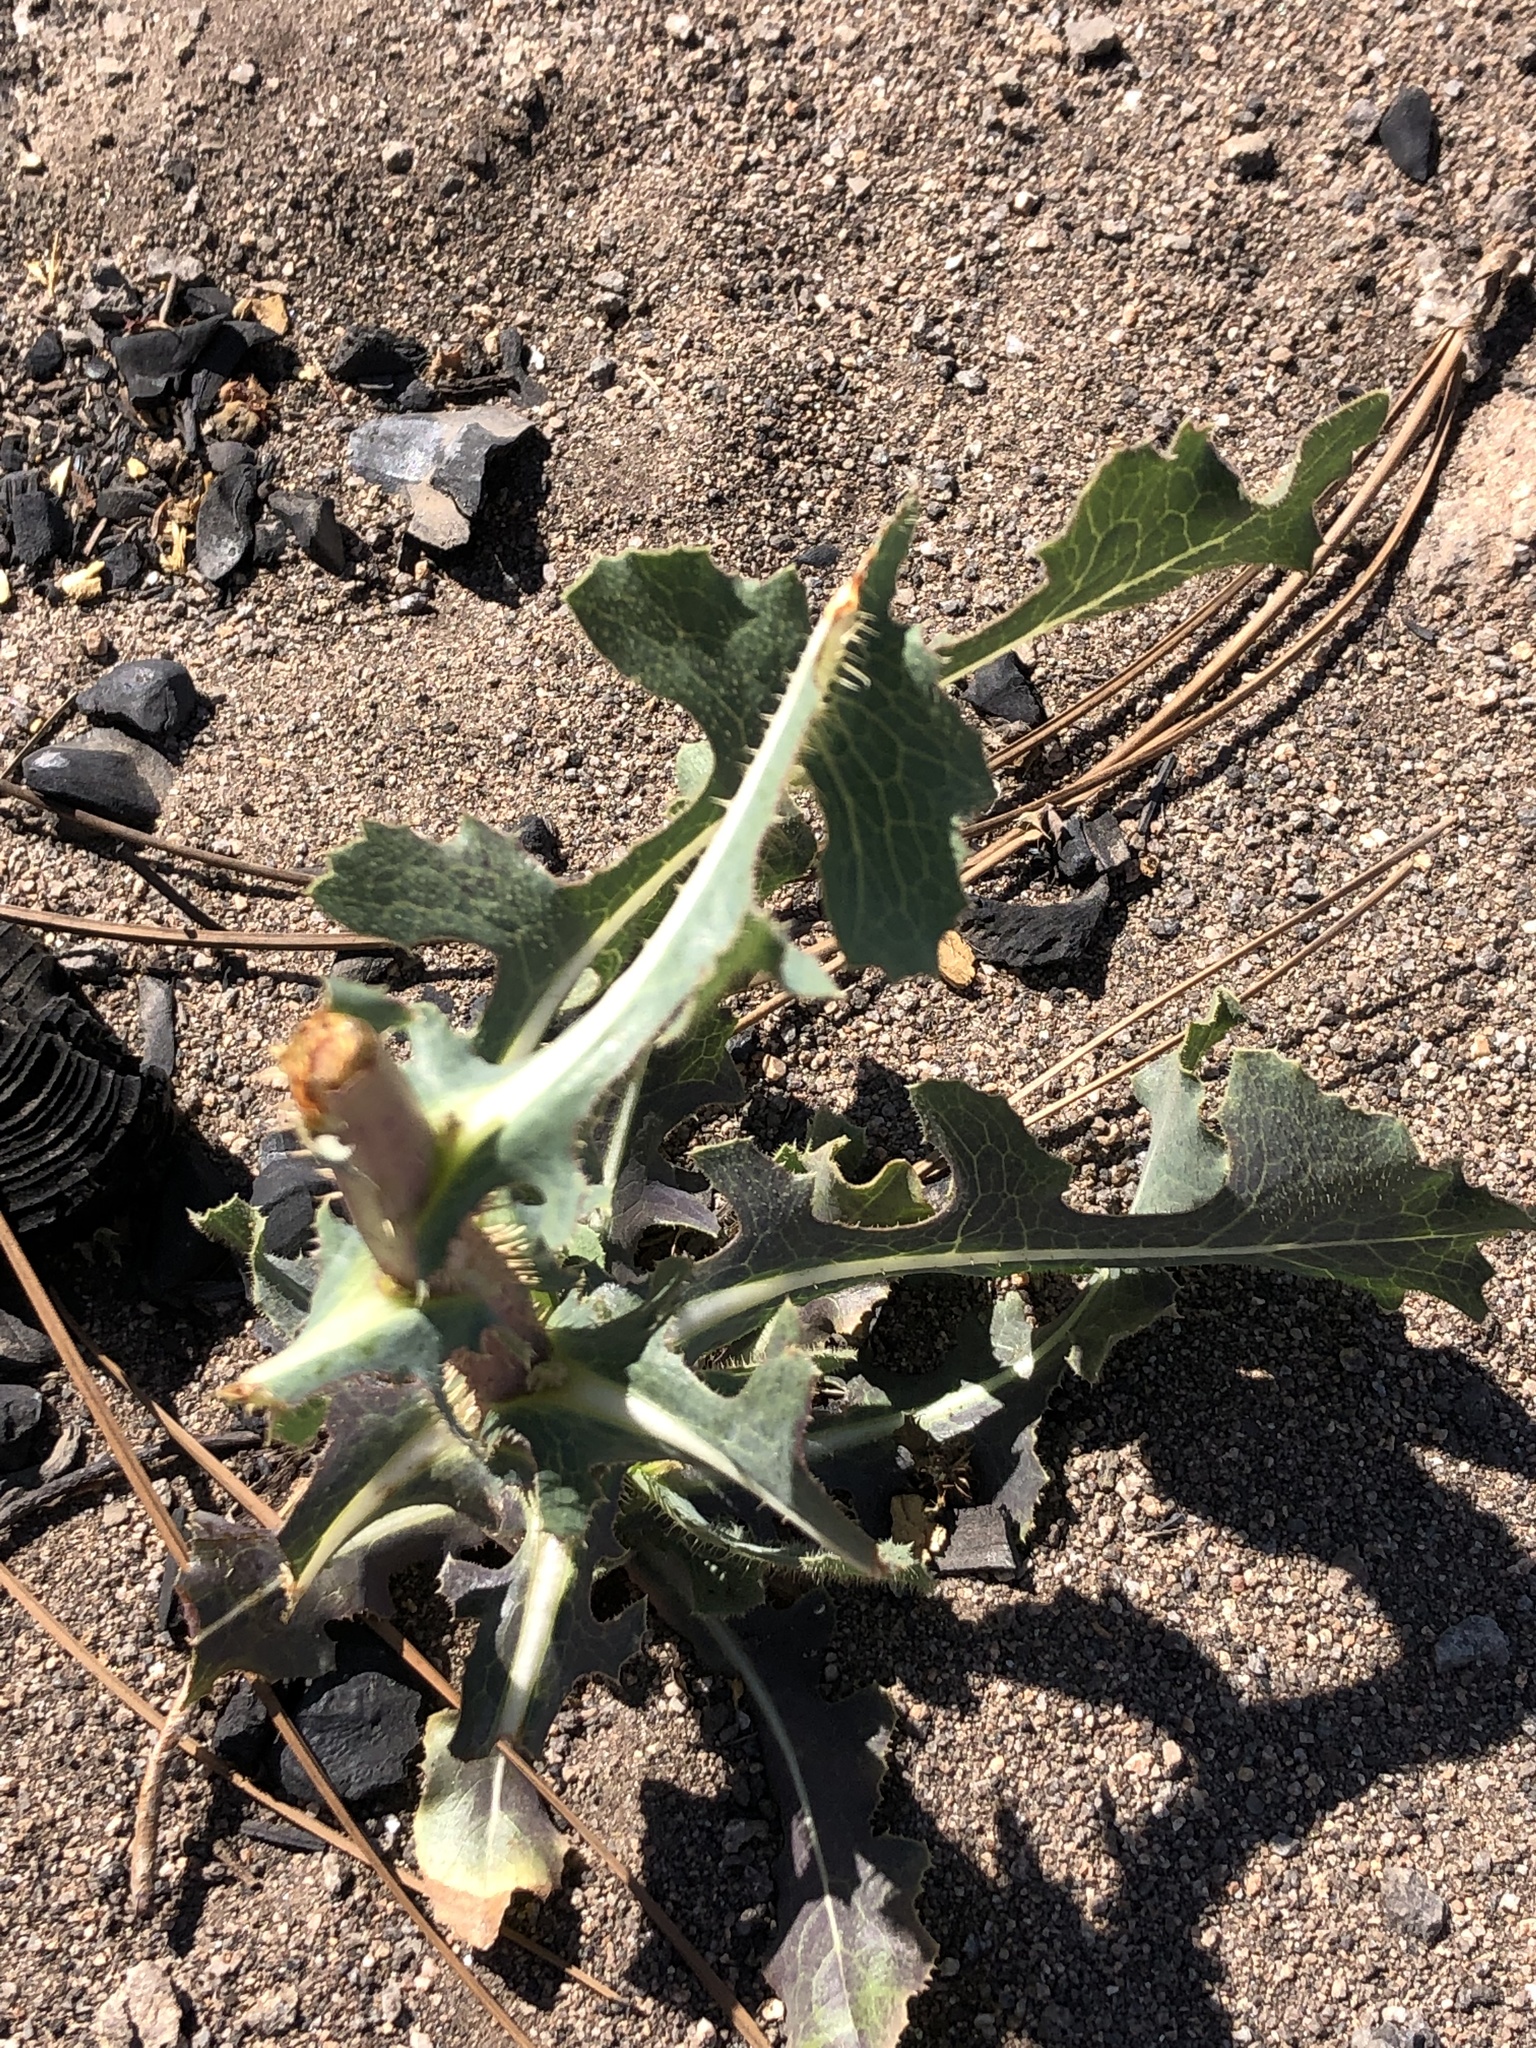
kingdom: Plantae
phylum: Tracheophyta
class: Magnoliopsida
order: Asterales
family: Asteraceae
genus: Lactuca
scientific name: Lactuca serriola
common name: Prickly lettuce
